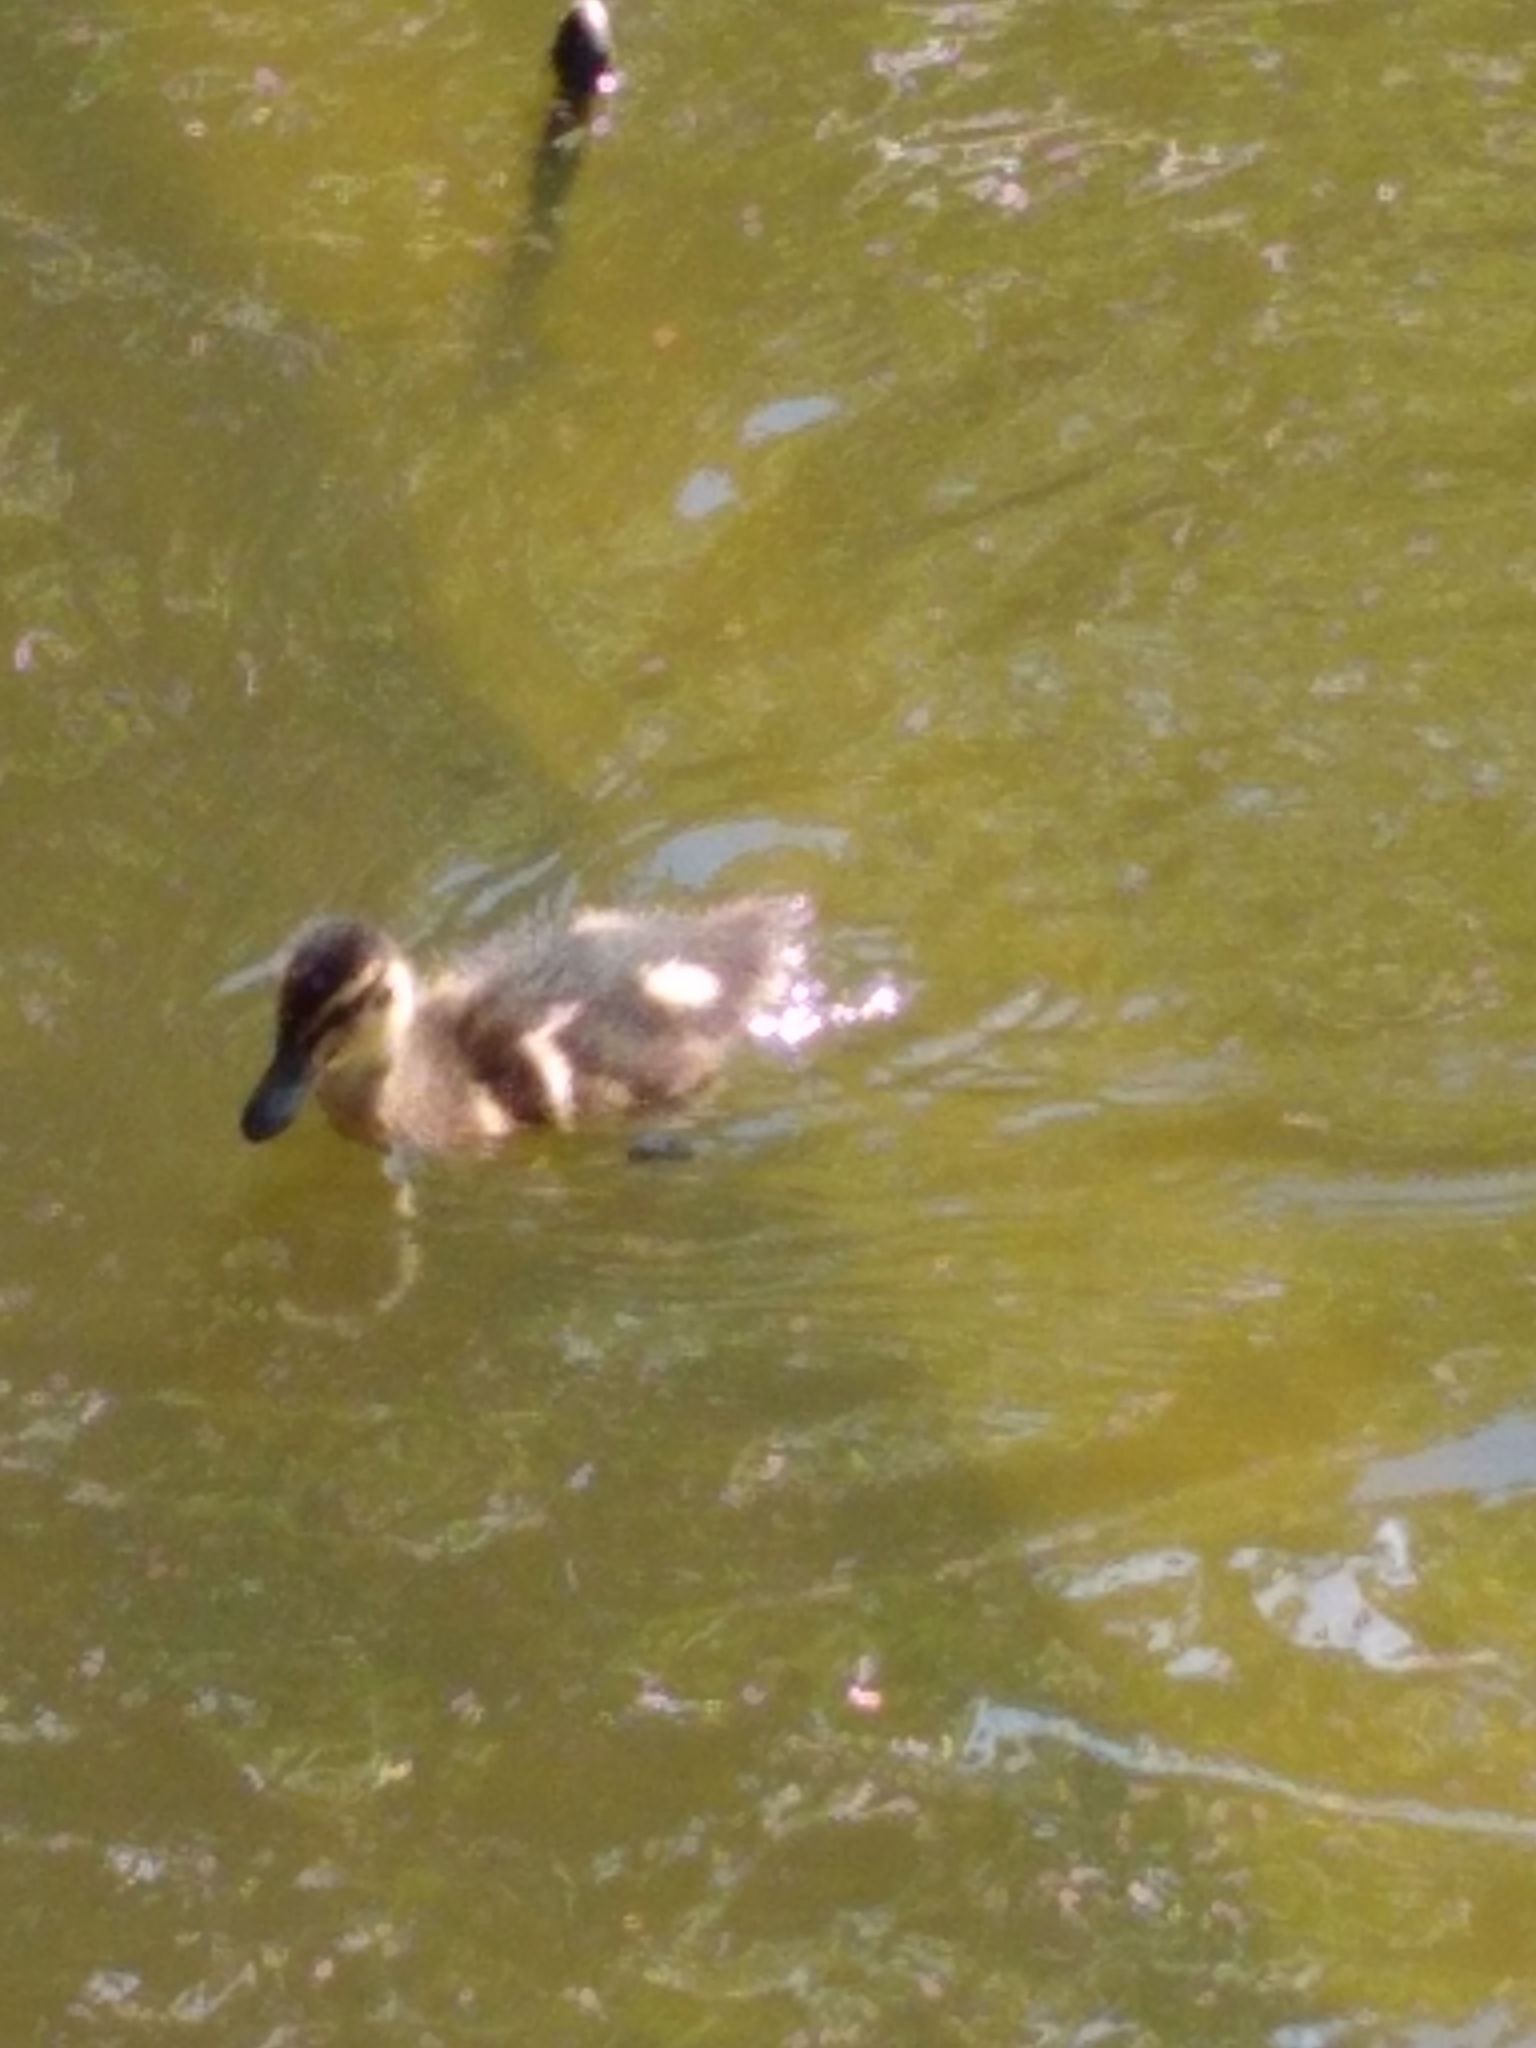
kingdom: Animalia
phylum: Chordata
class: Aves
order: Anseriformes
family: Anatidae
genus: Anas
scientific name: Anas platyrhynchos
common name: Mallard
